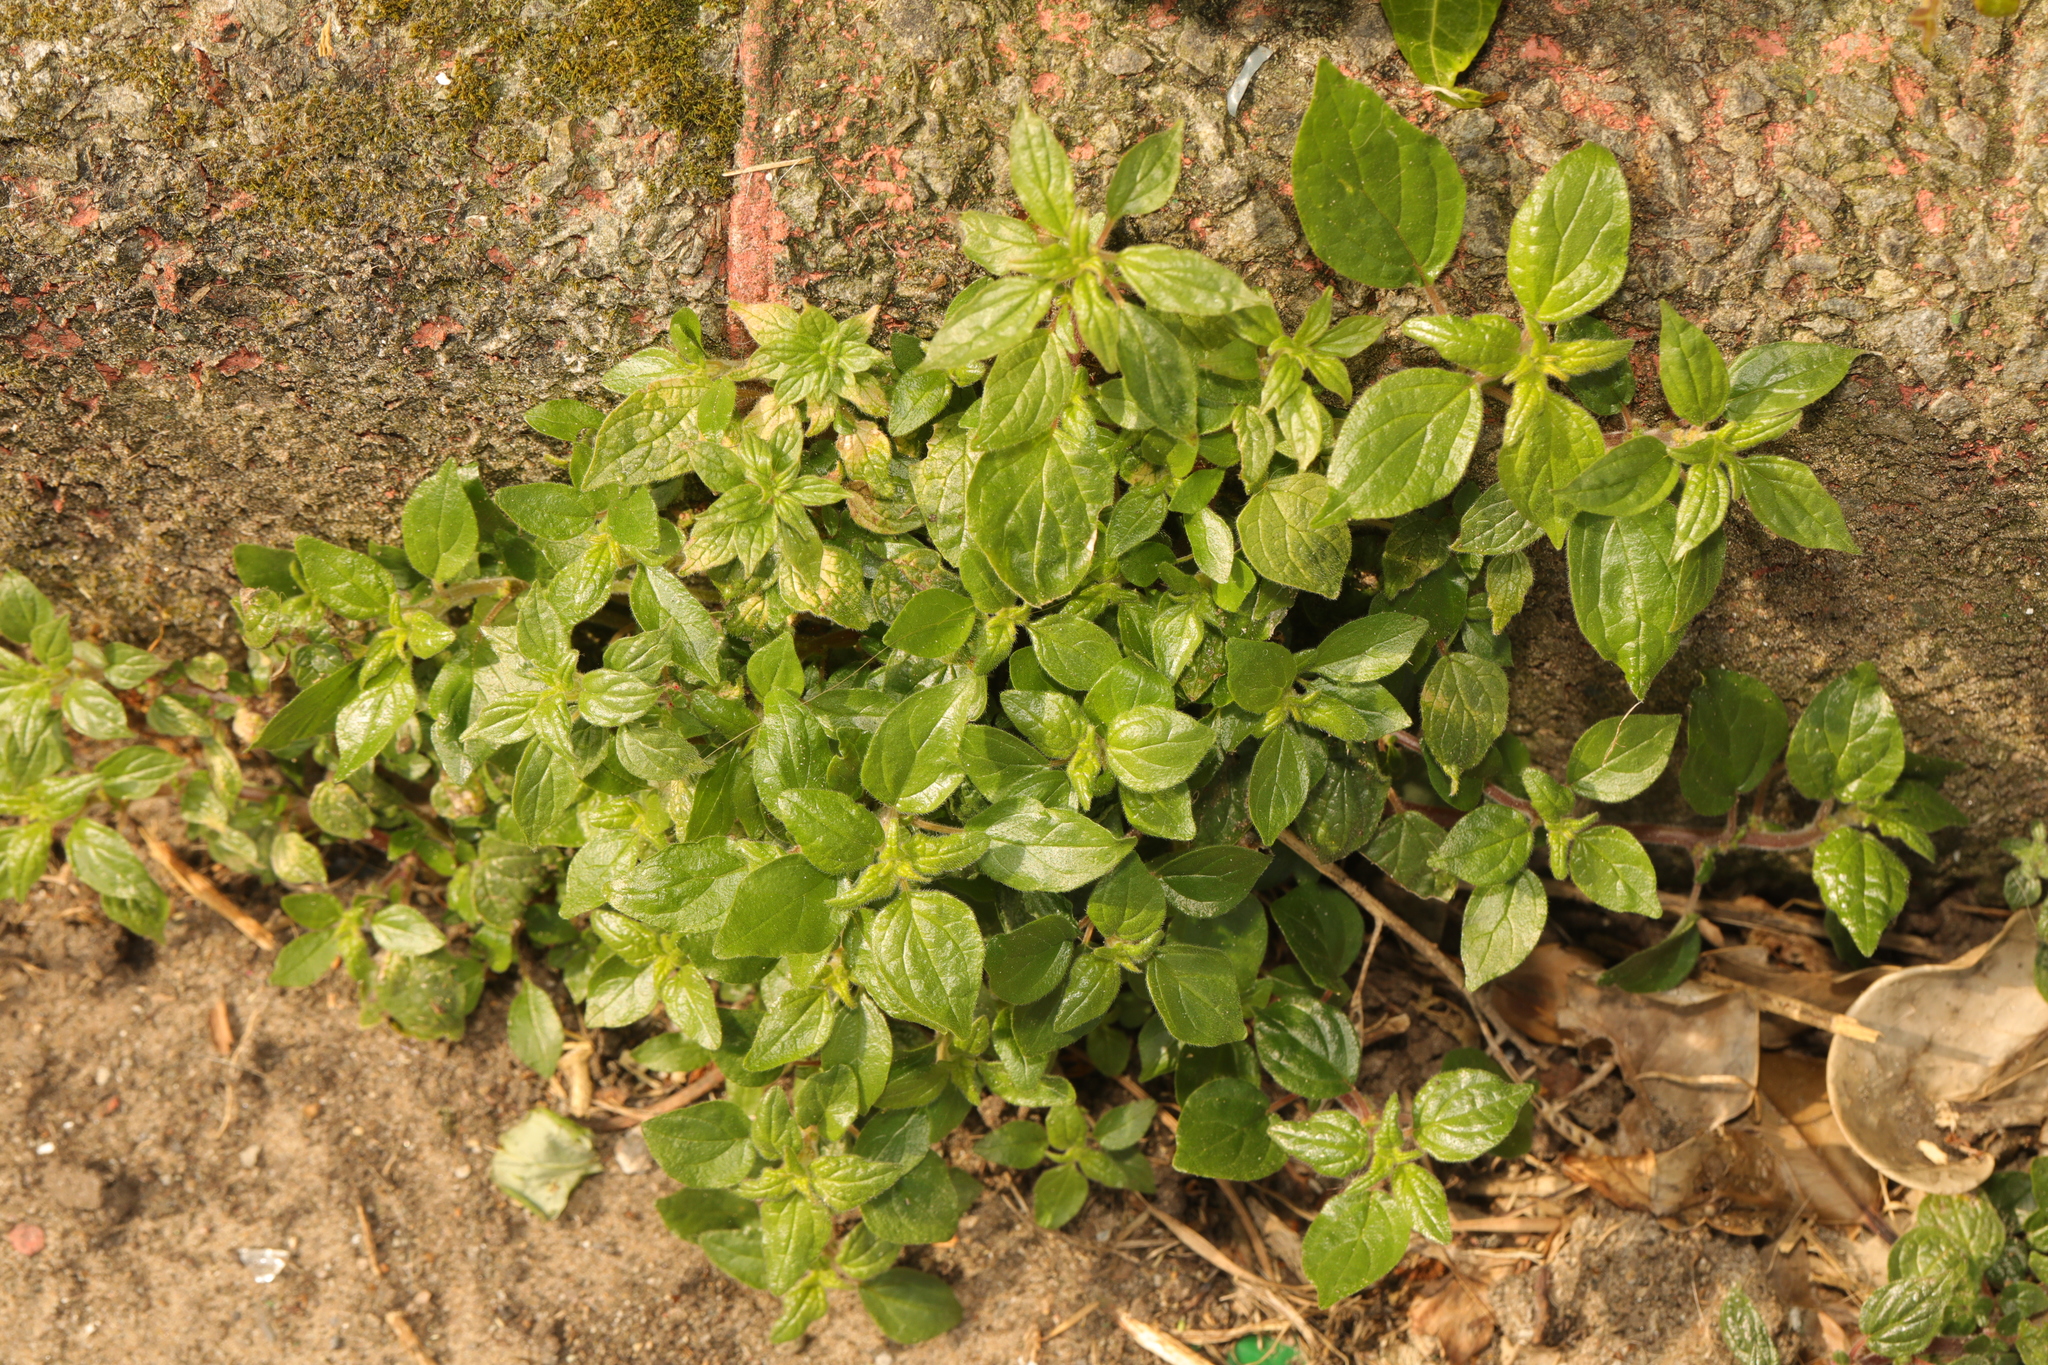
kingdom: Plantae
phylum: Tracheophyta
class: Magnoliopsida
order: Rosales
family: Urticaceae
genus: Parietaria
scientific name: Parietaria judaica
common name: Pellitory-of-the-wall
